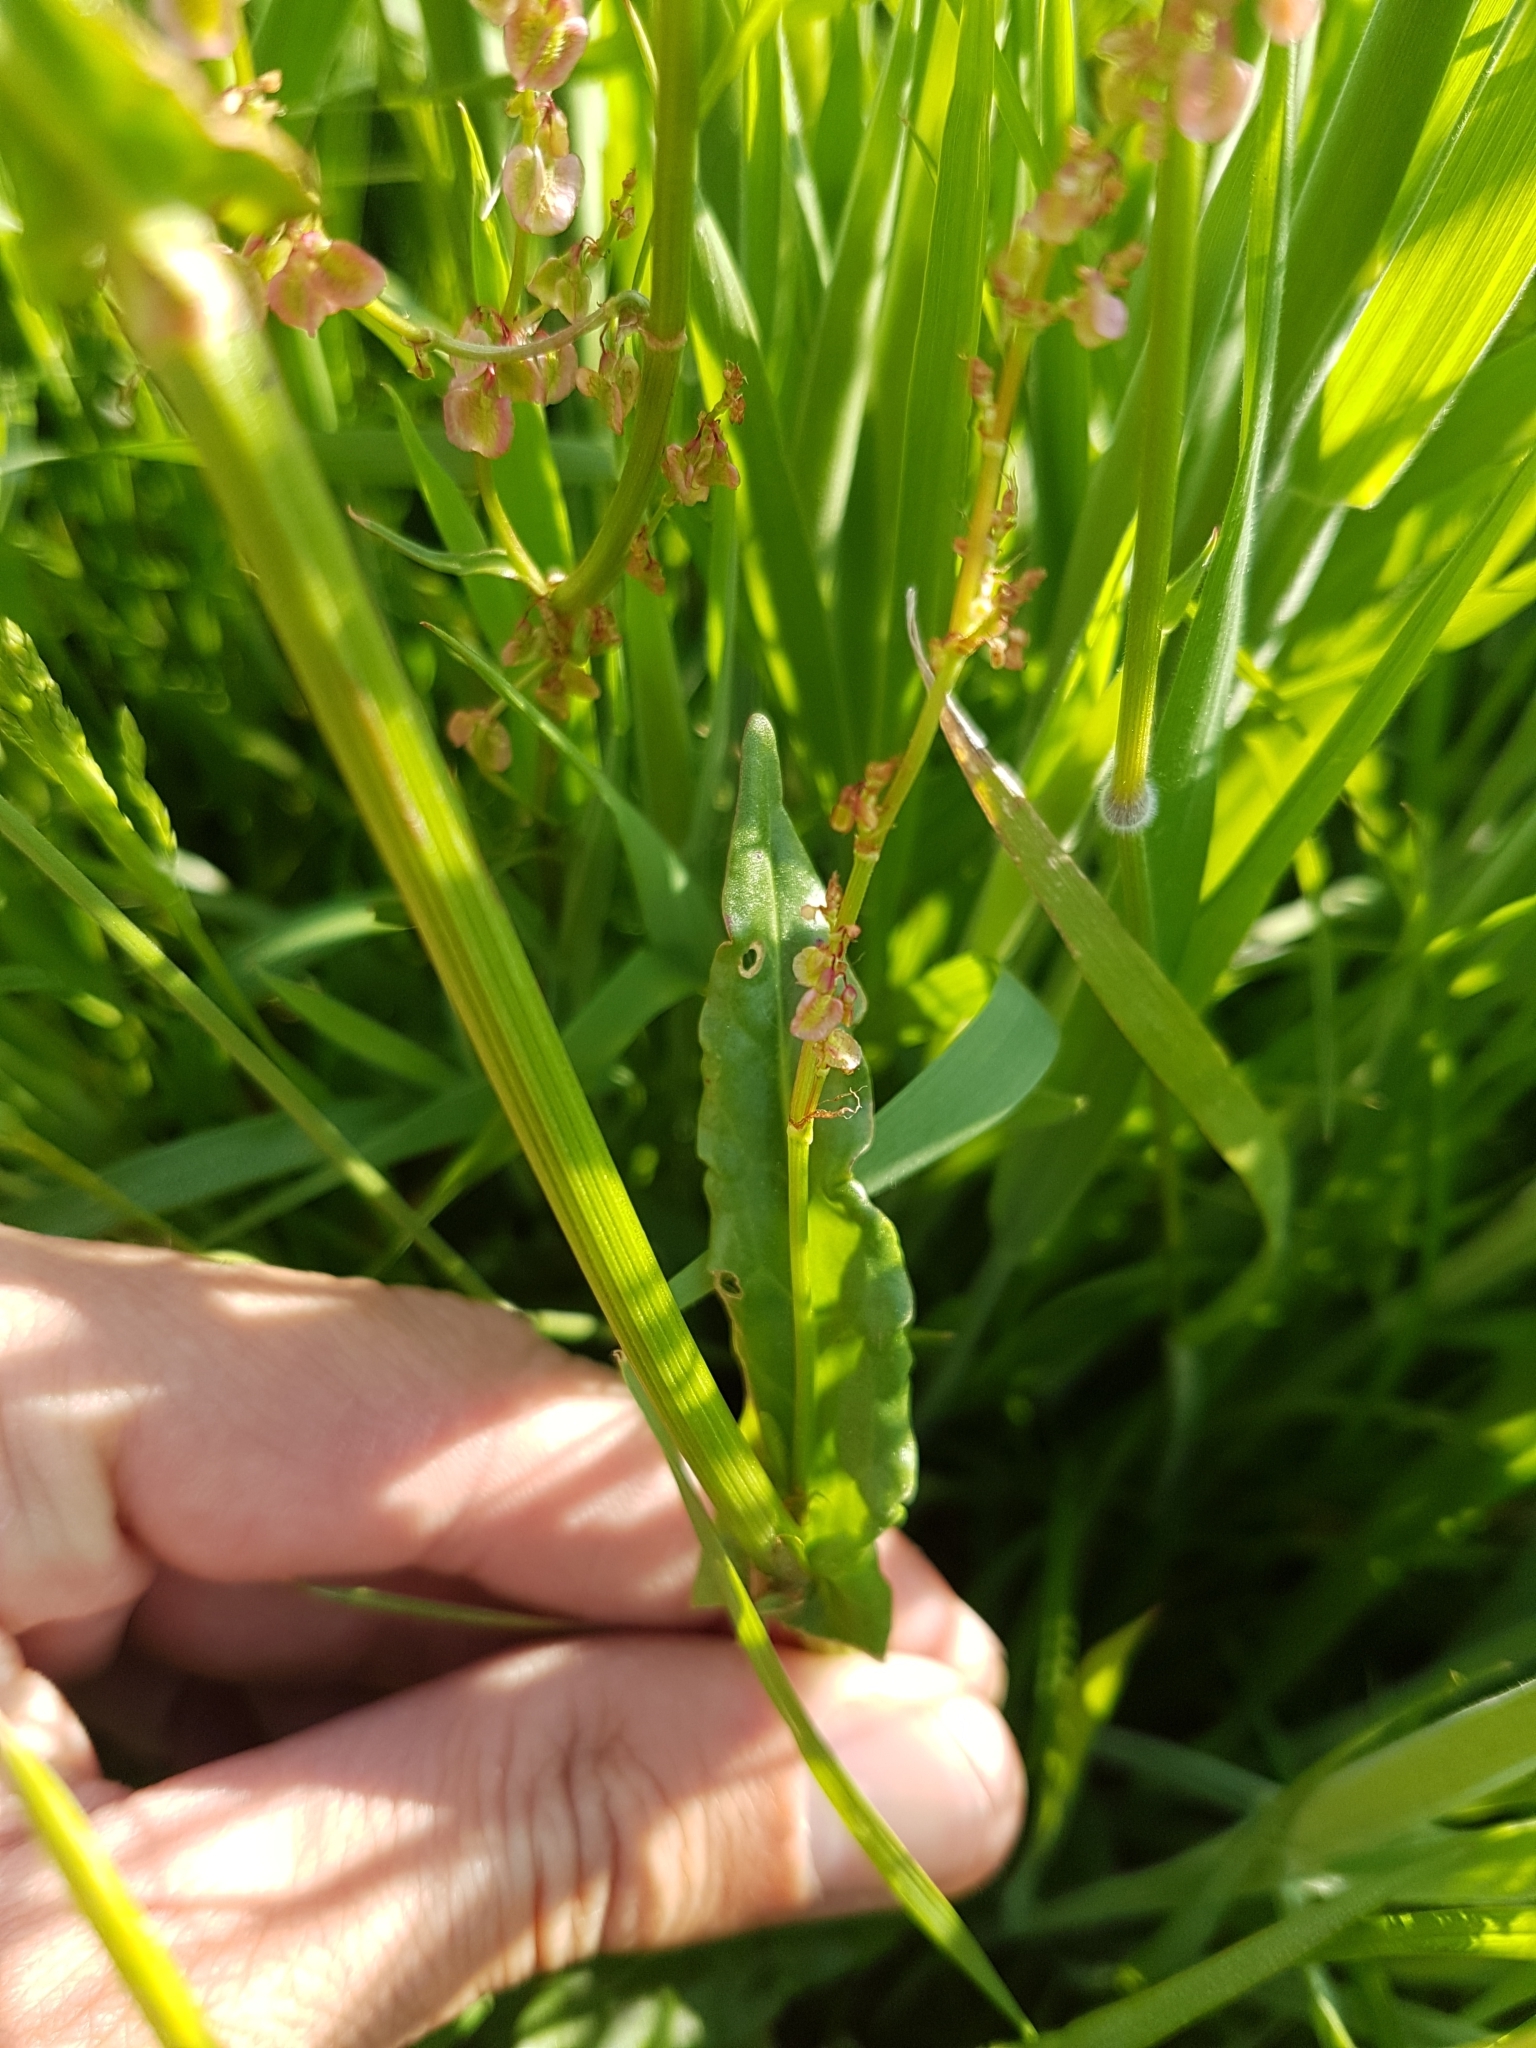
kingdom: Plantae
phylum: Tracheophyta
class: Magnoliopsida
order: Caryophyllales
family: Polygonaceae
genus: Rumex
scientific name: Rumex acetosa
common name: Garden sorrel
